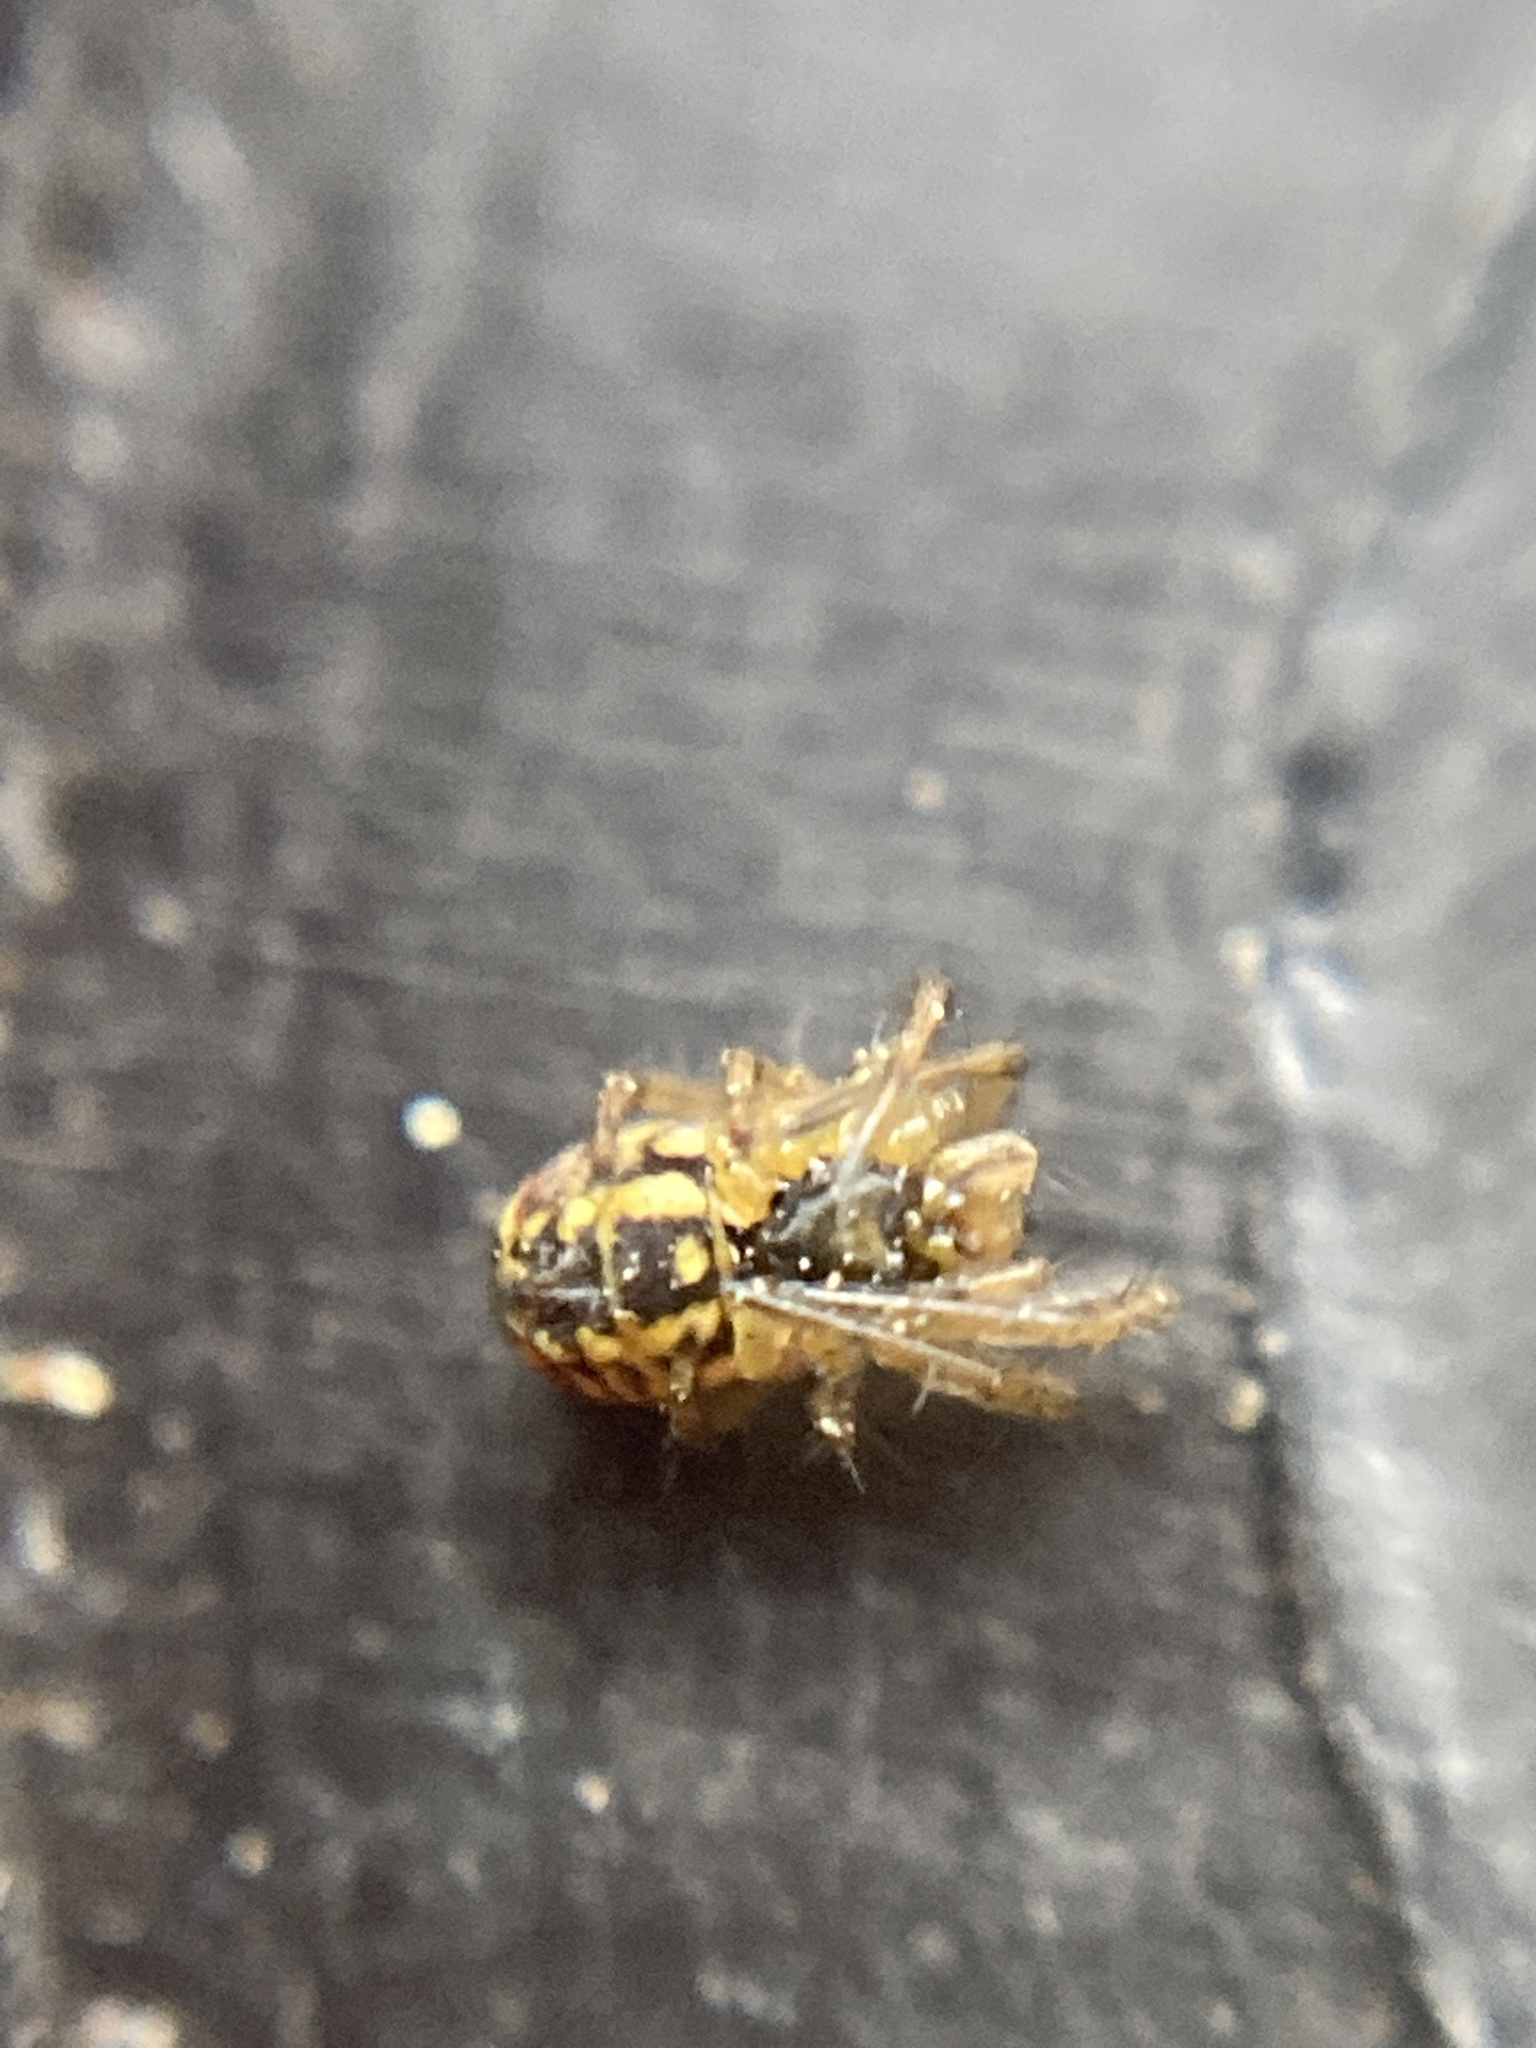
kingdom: Animalia
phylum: Arthropoda
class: Arachnida
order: Araneae
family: Araneidae
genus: Mangora
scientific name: Mangora acalypha
